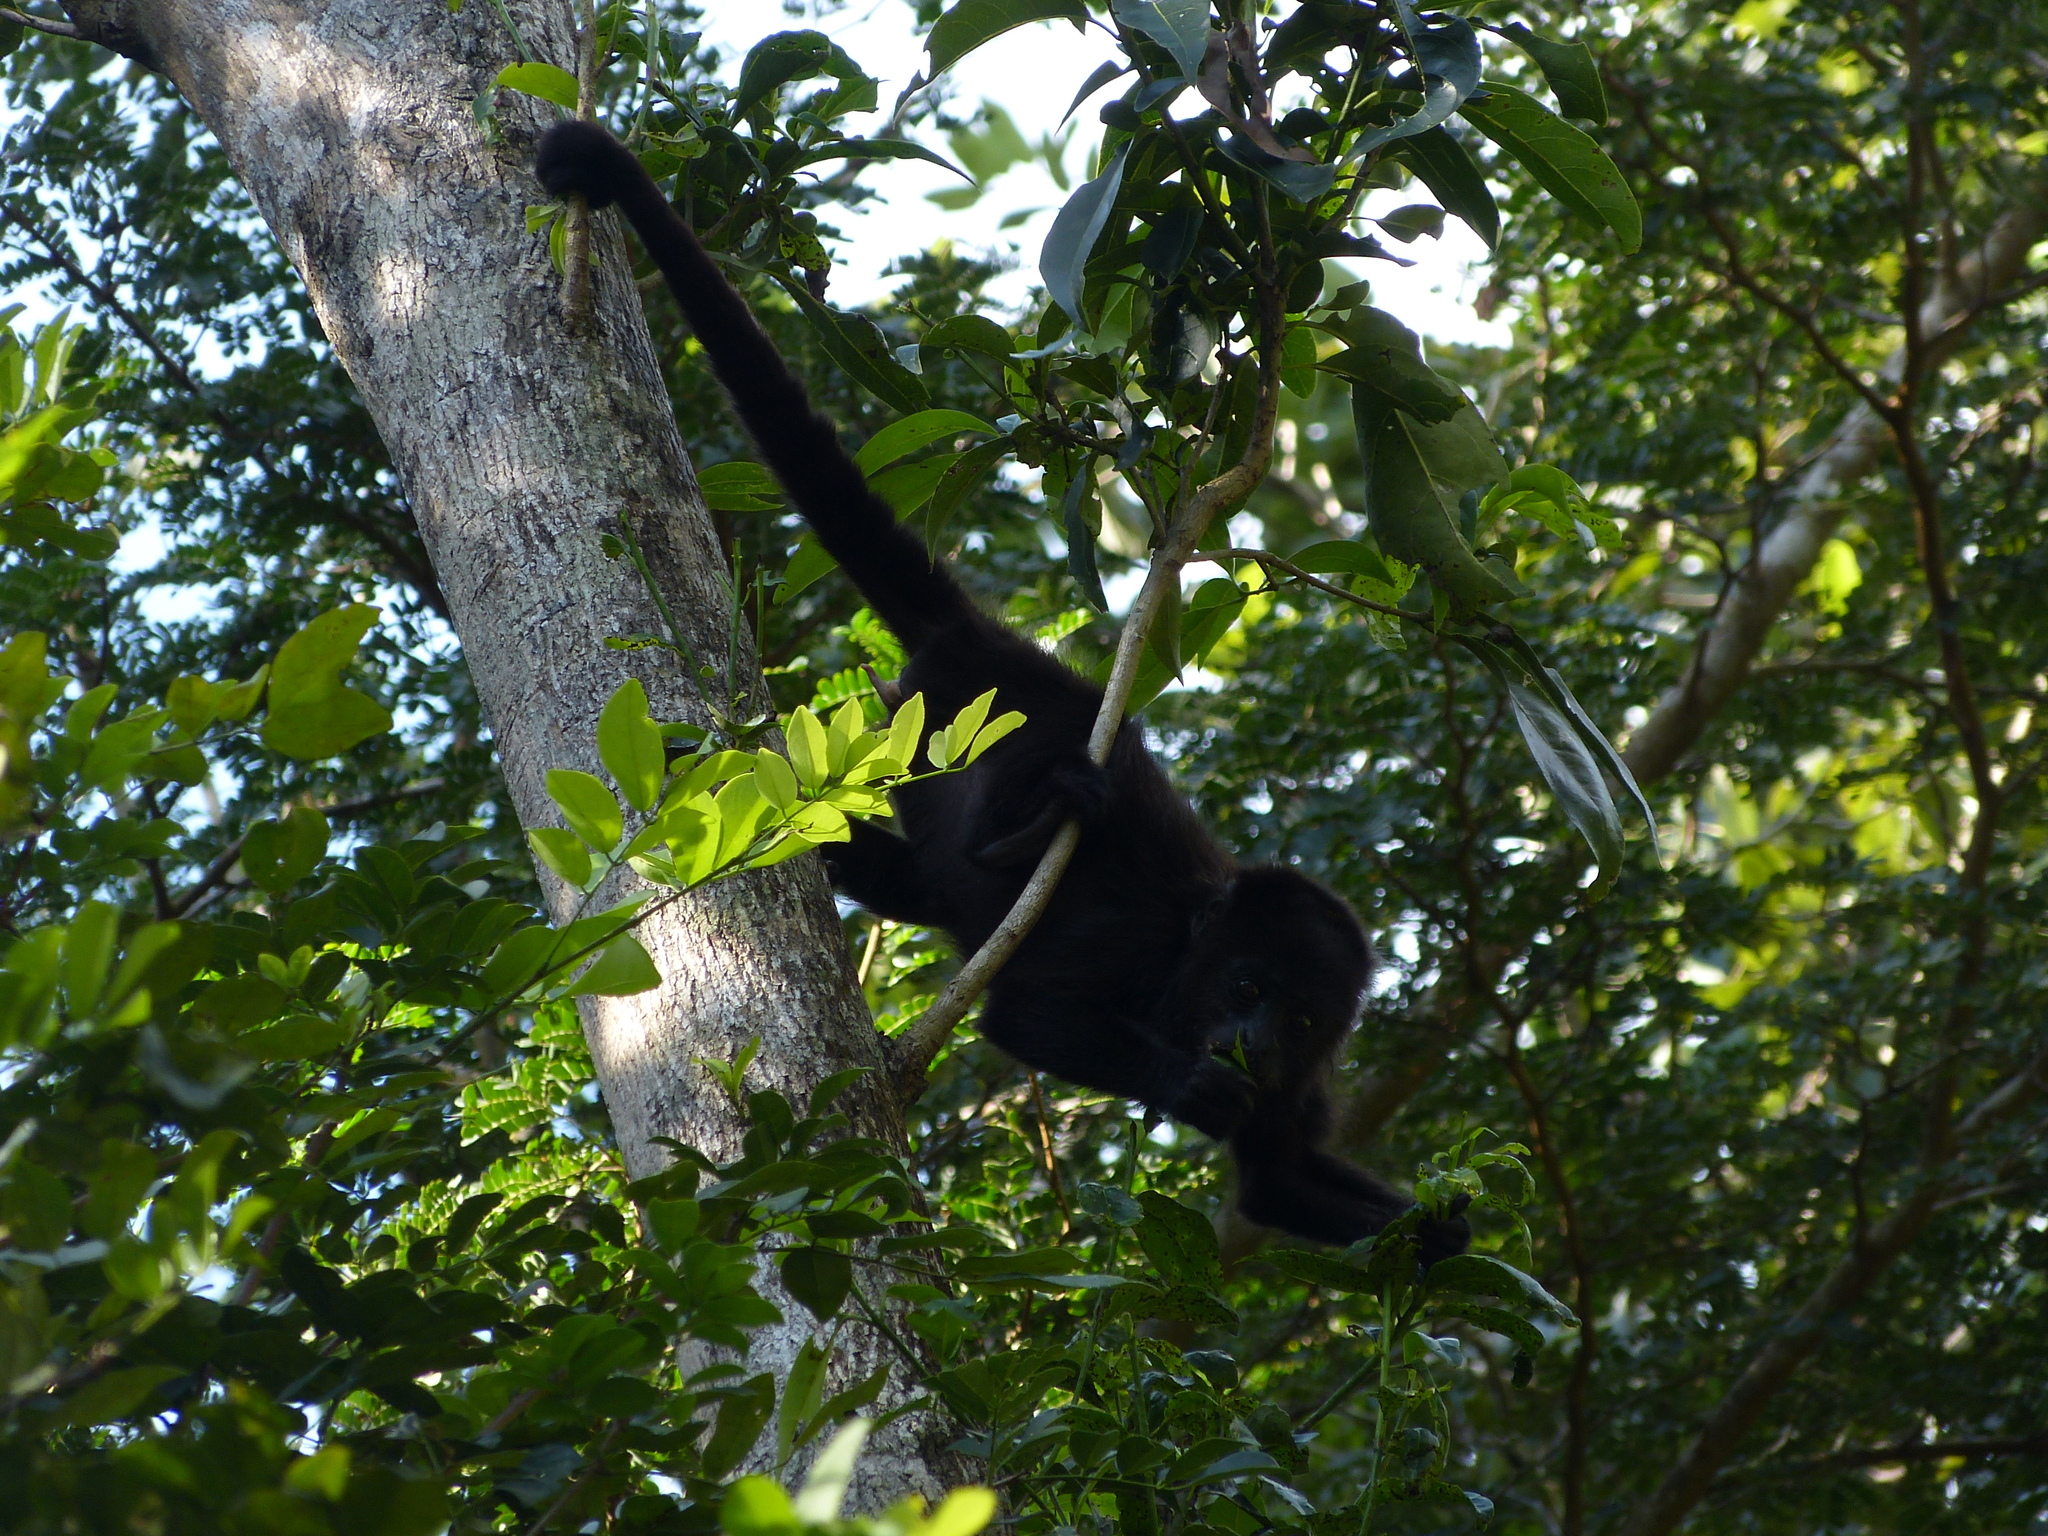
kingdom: Animalia
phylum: Chordata
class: Mammalia
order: Primates
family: Atelidae
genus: Alouatta
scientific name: Alouatta pigra
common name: Guatemalan black howler
